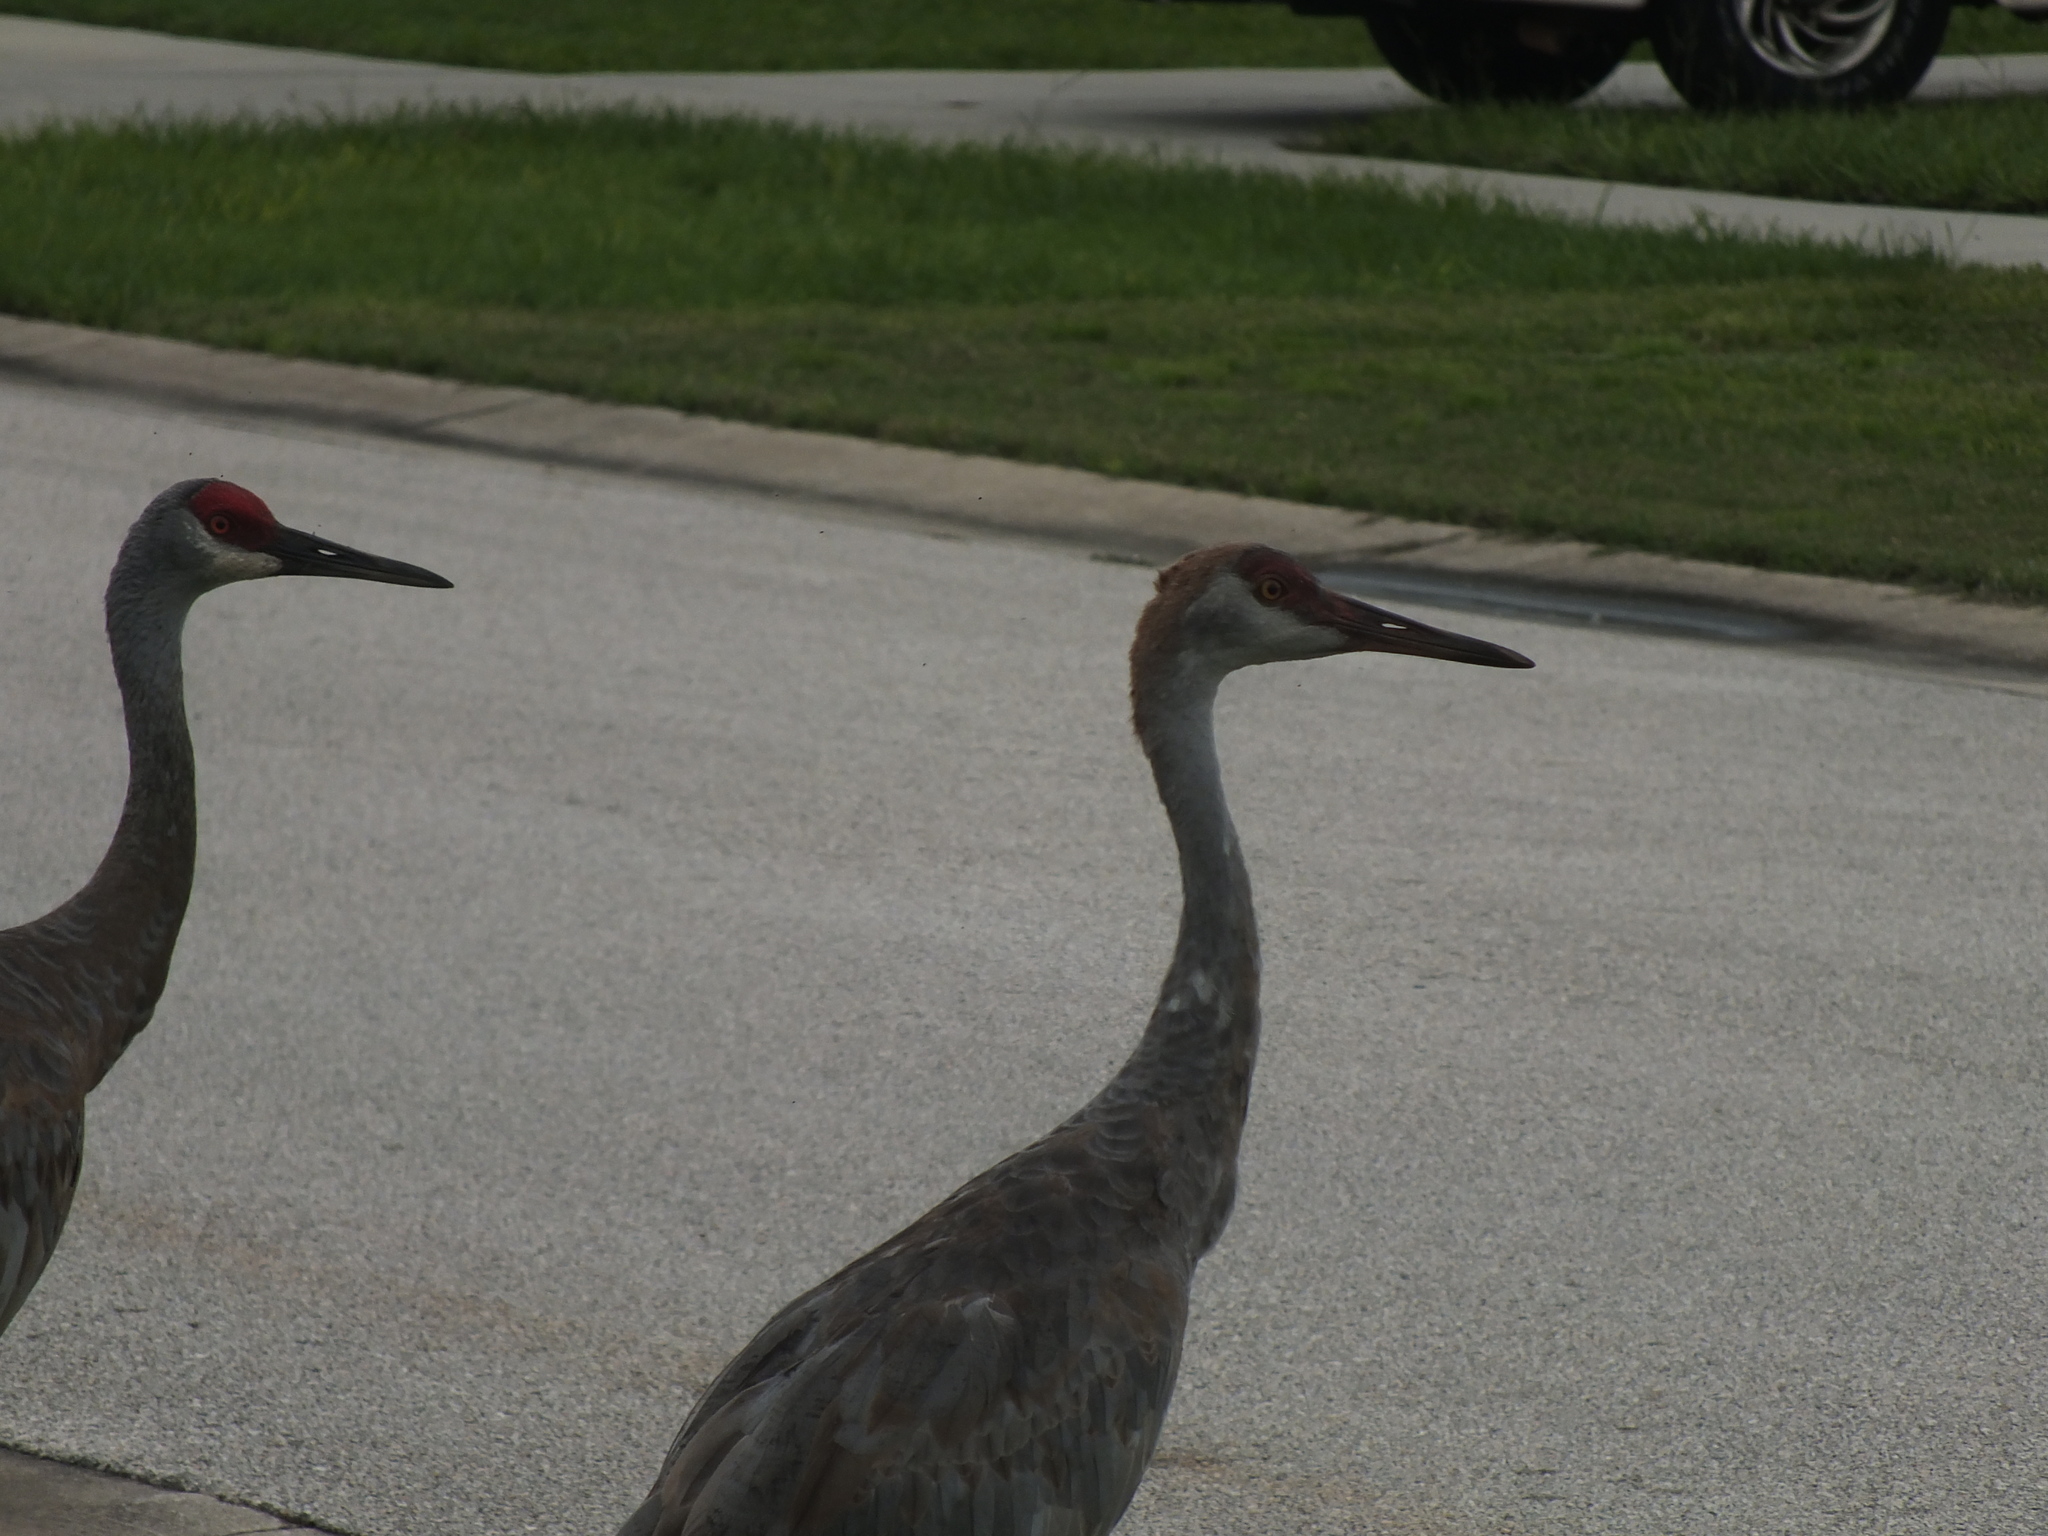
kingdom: Animalia
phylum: Chordata
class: Aves
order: Gruiformes
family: Gruidae
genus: Grus
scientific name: Grus canadensis
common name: Sandhill crane
